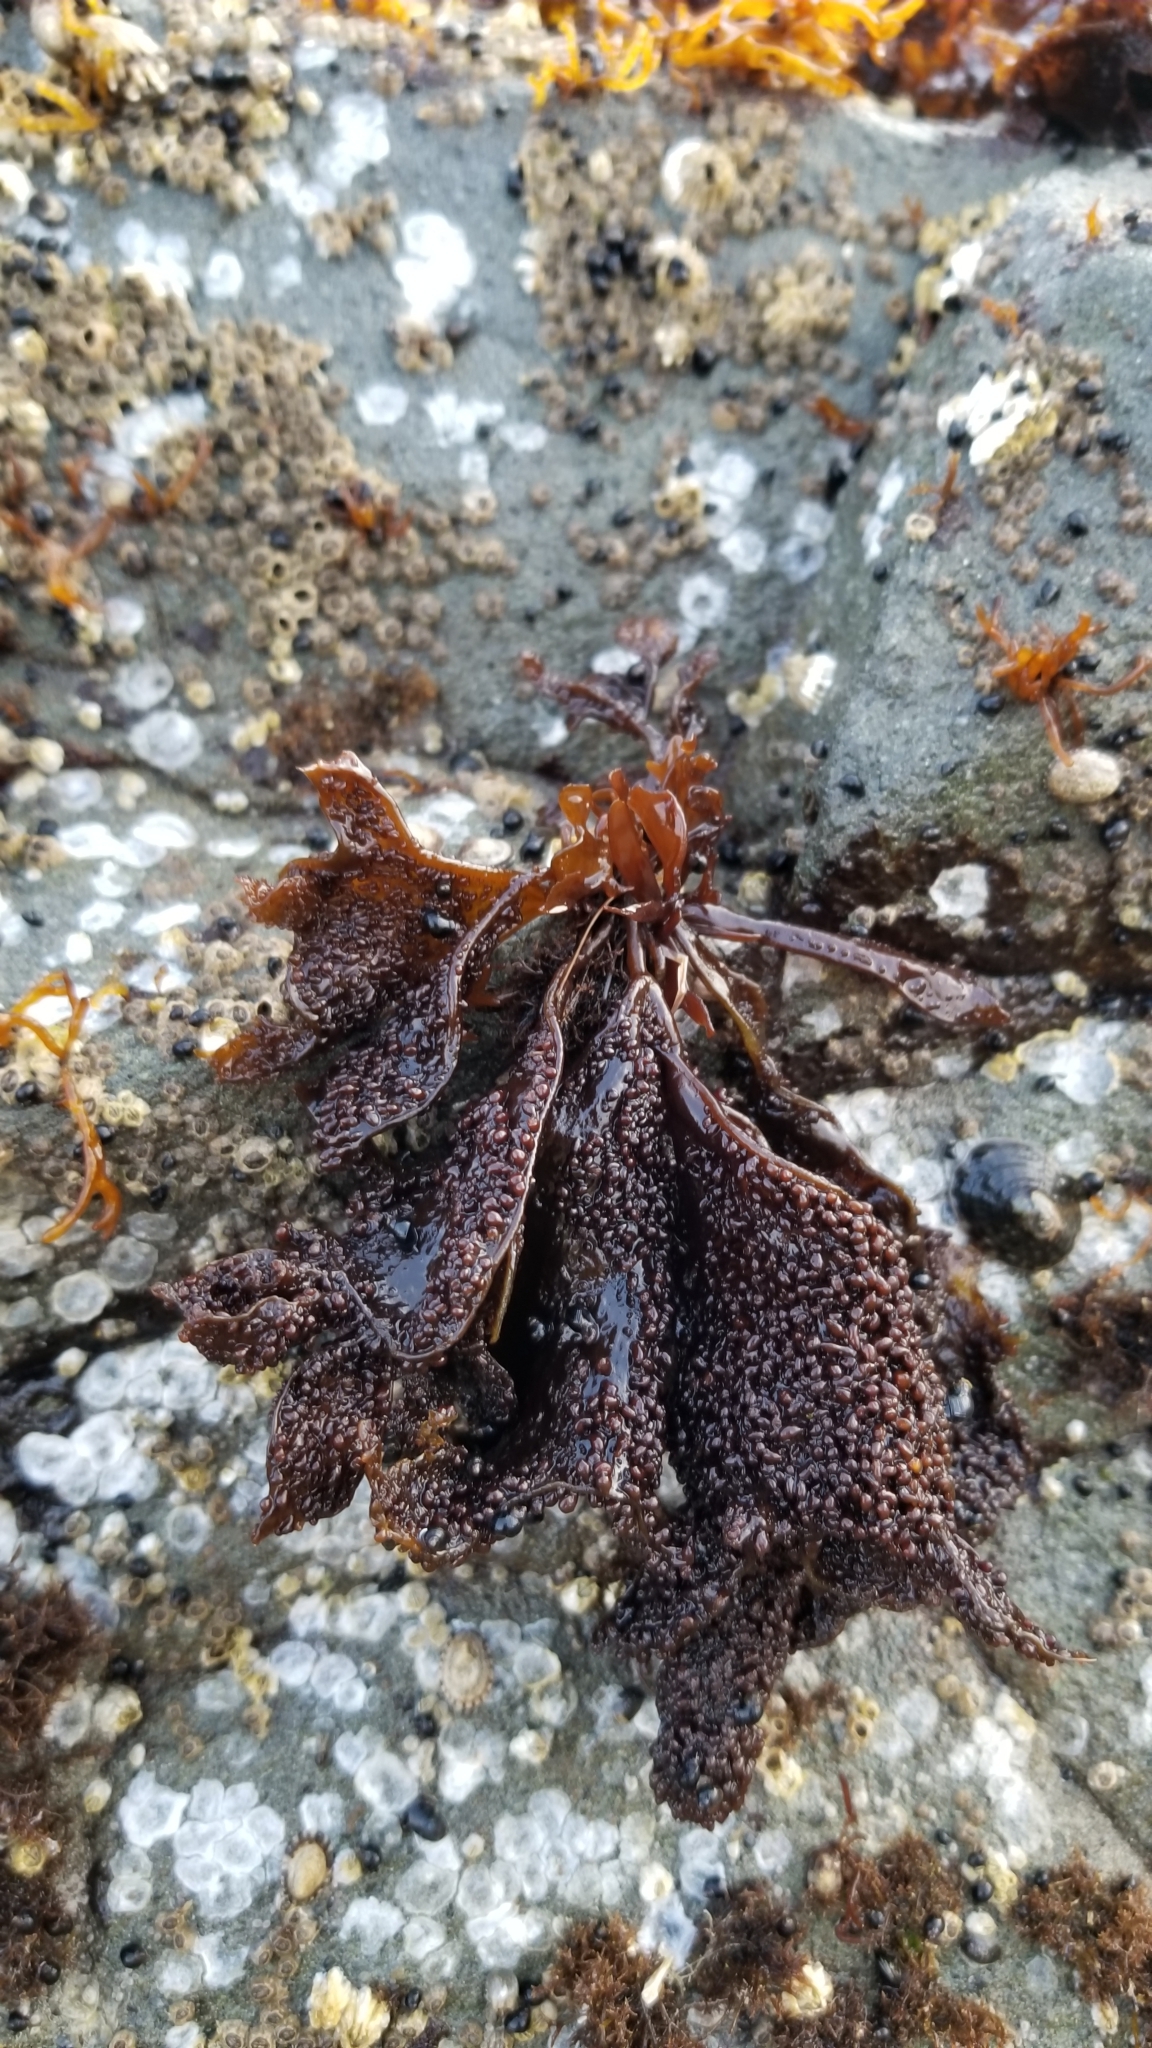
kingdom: Plantae
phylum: Rhodophyta
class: Florideophyceae
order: Gigartinales
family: Phyllophoraceae
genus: Mastocarpus
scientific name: Mastocarpus papillatus
